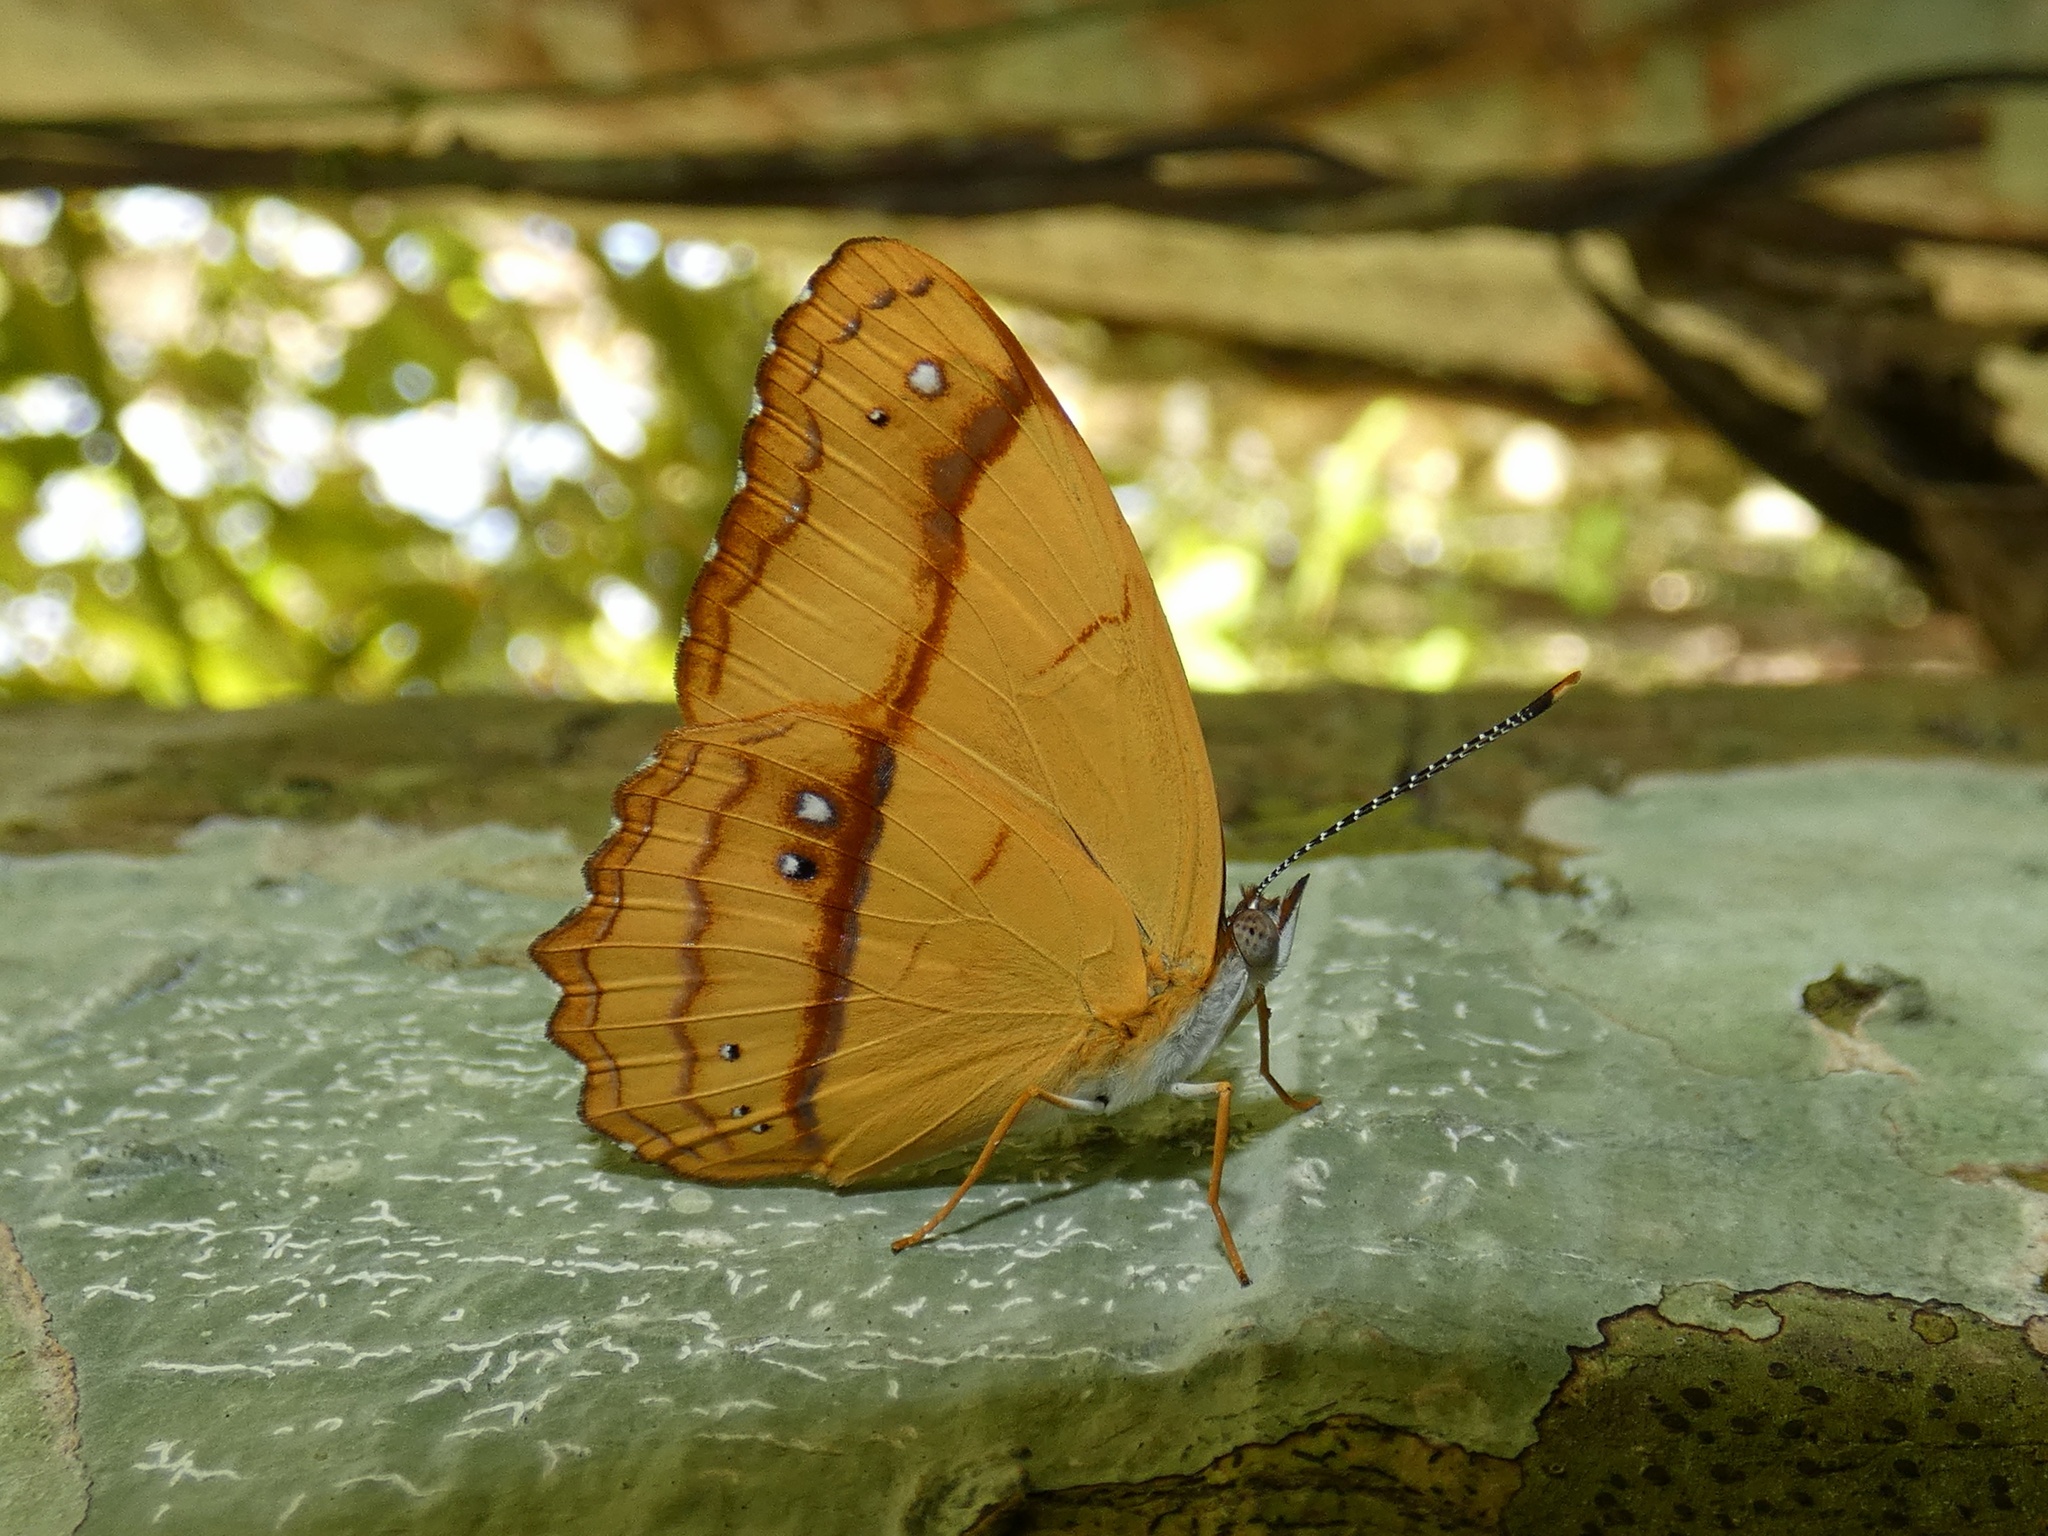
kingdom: Animalia
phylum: Arthropoda
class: Insecta
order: Lepidoptera
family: Nymphalidae
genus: Nica
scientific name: Nica flavilla
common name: Mandarin nica
